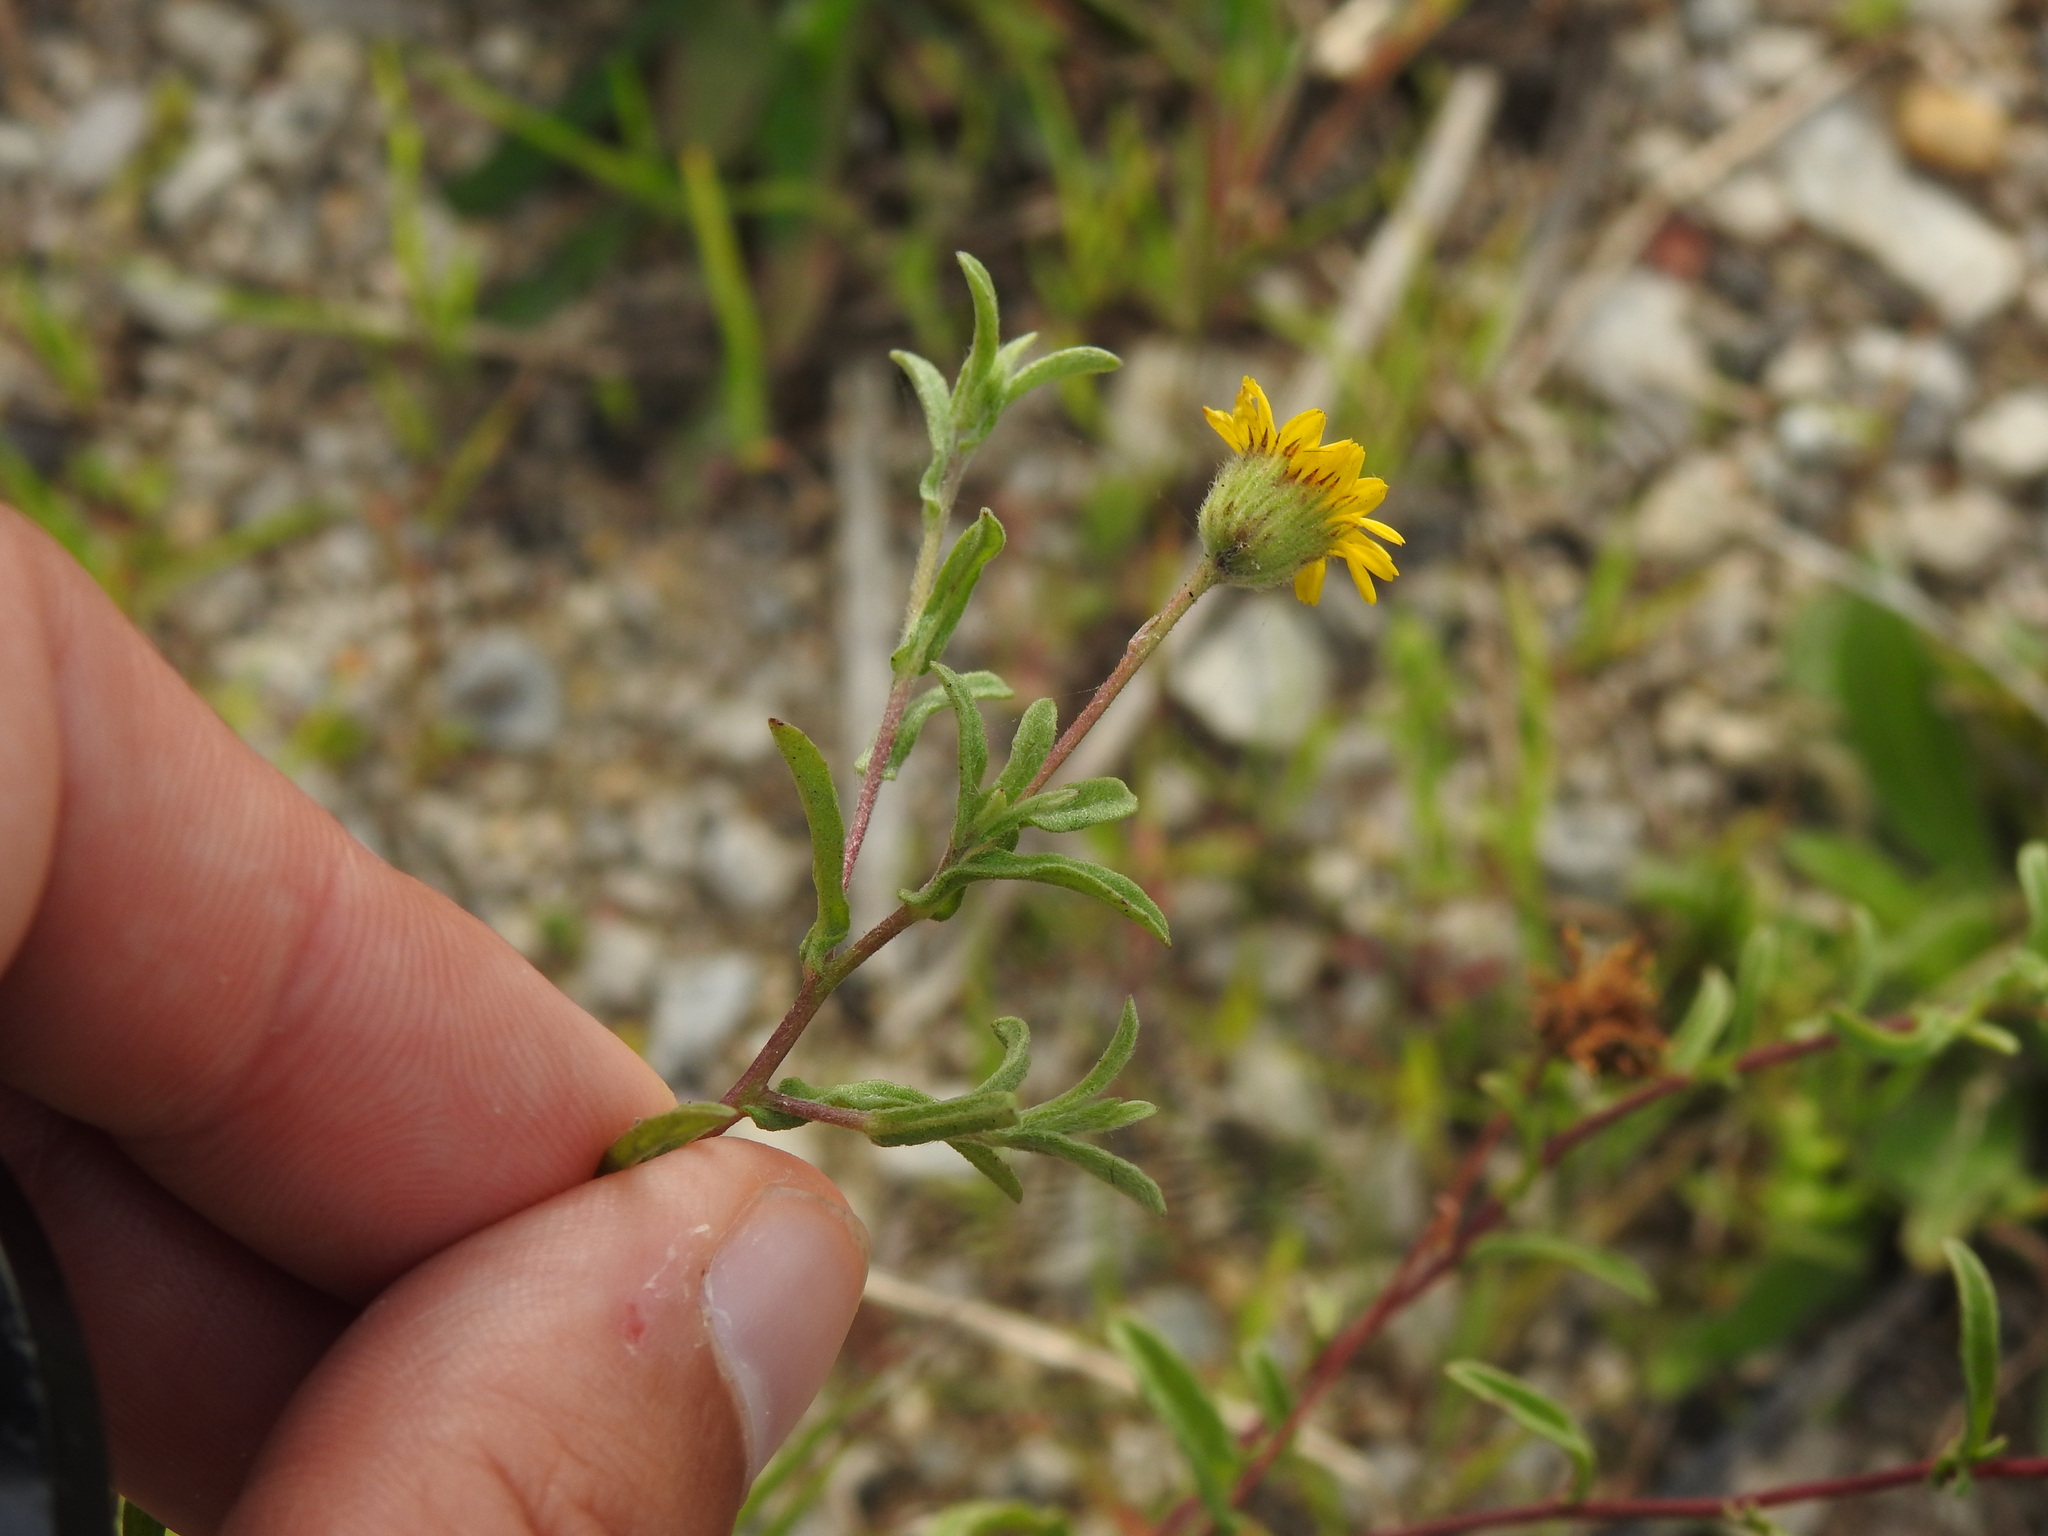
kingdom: Plantae
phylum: Tracheophyta
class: Magnoliopsida
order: Asterales
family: Asteraceae
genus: Pulicaria
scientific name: Pulicaria paludosa
